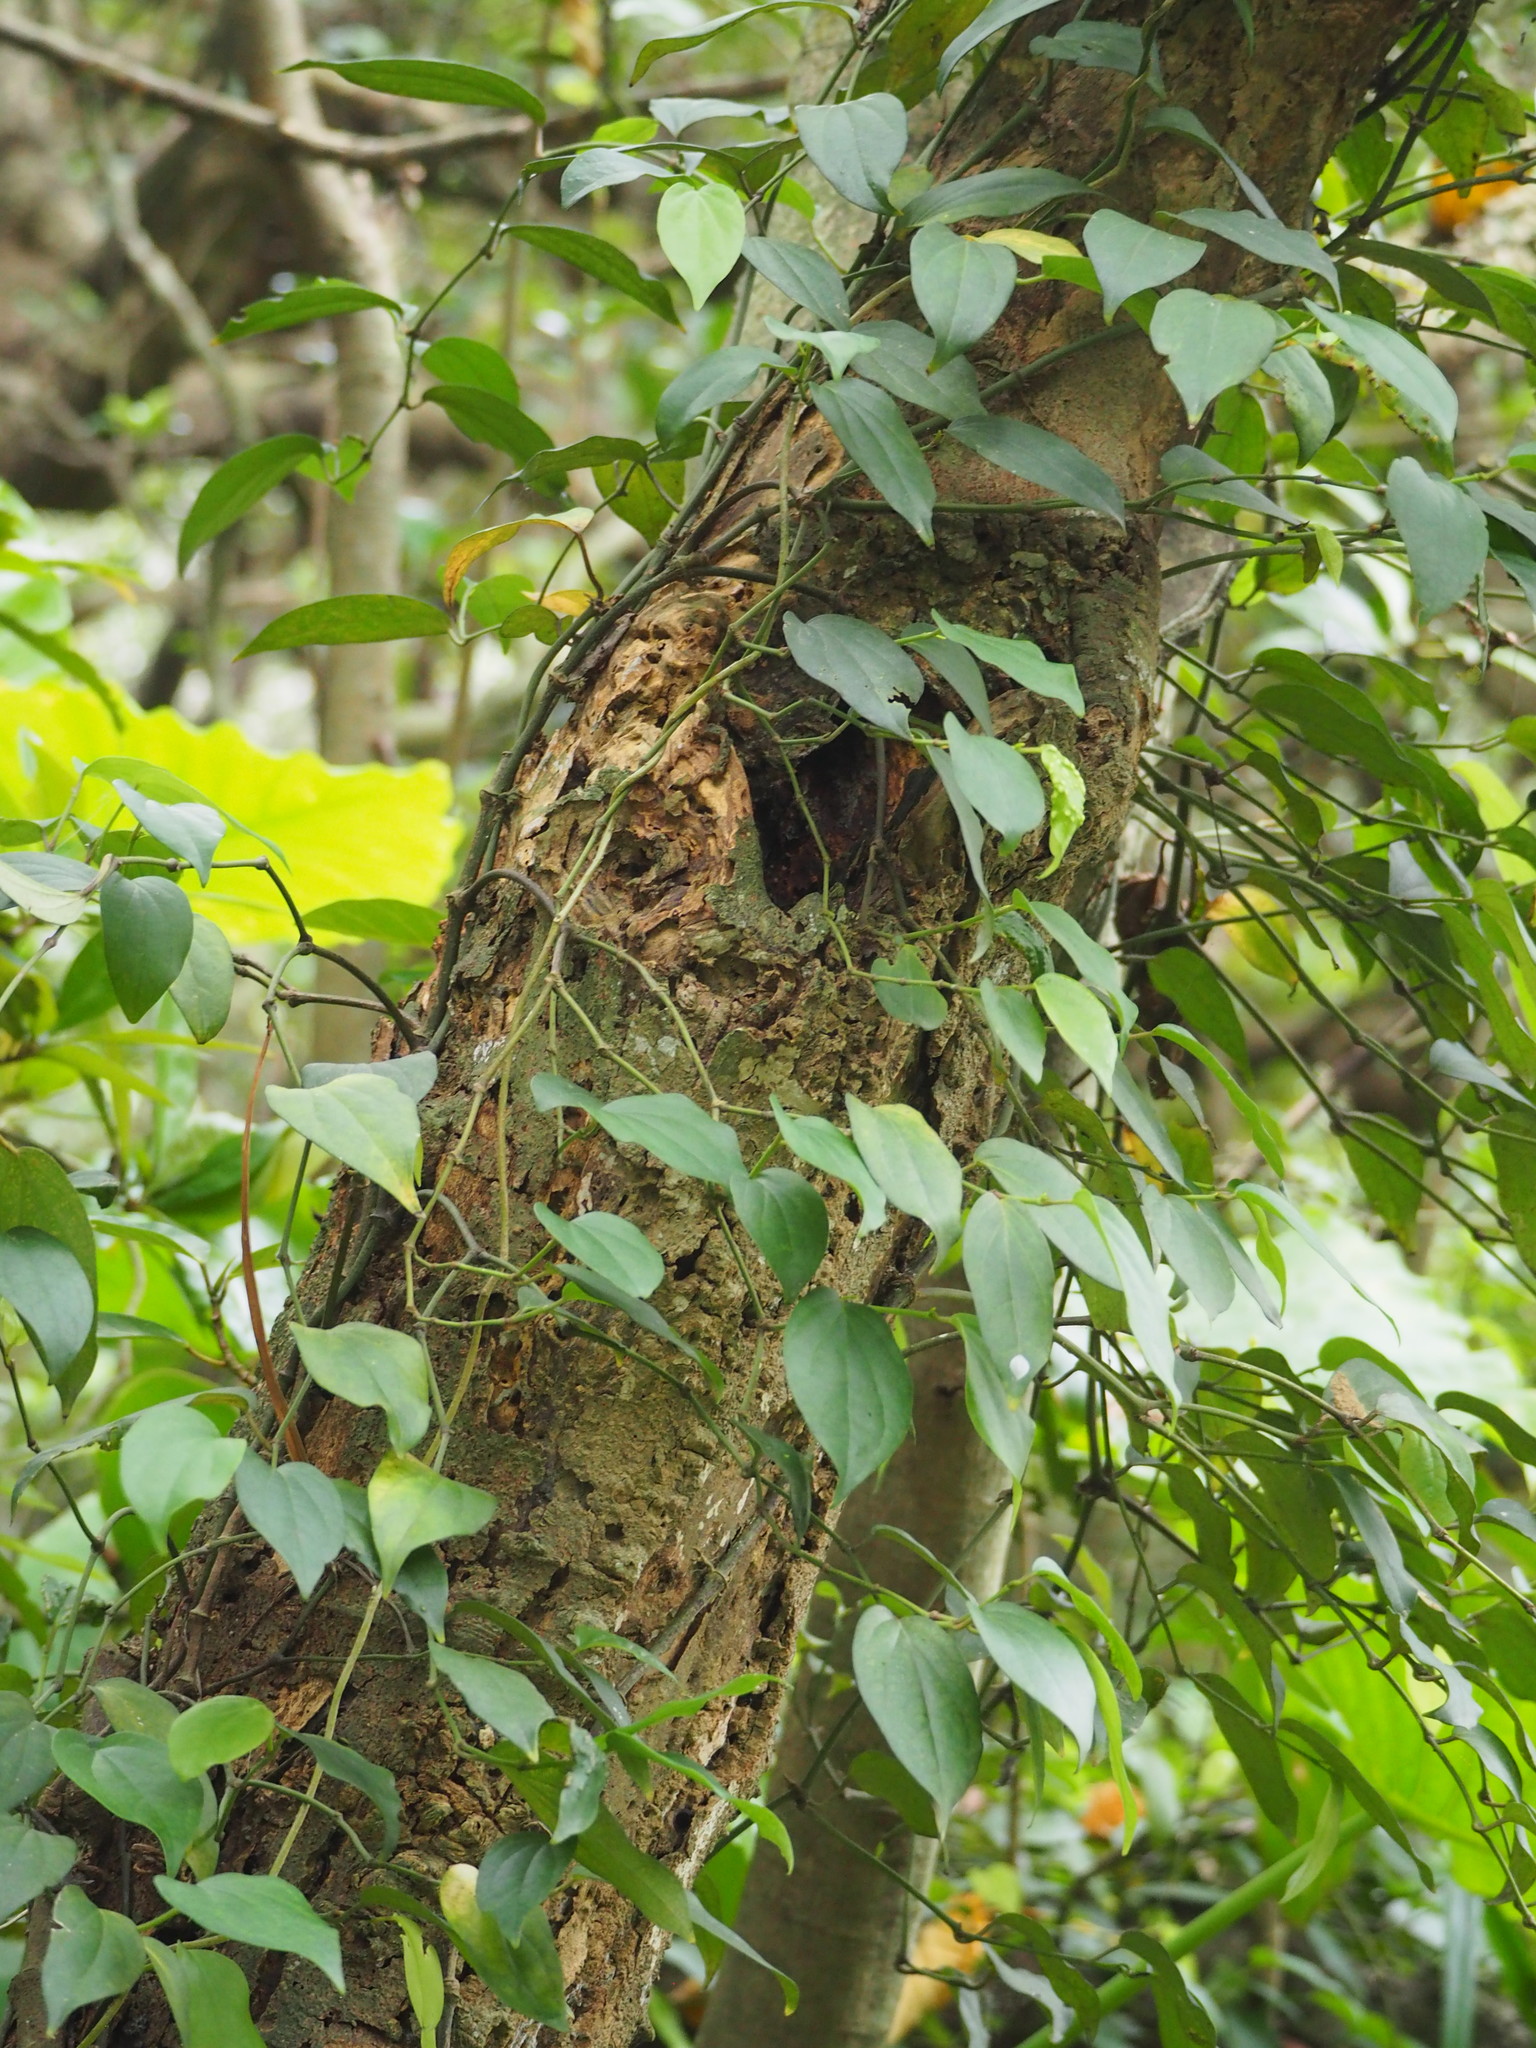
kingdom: Plantae
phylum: Tracheophyta
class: Magnoliopsida
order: Piperales
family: Piperaceae
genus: Piper
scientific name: Piper kadsura
